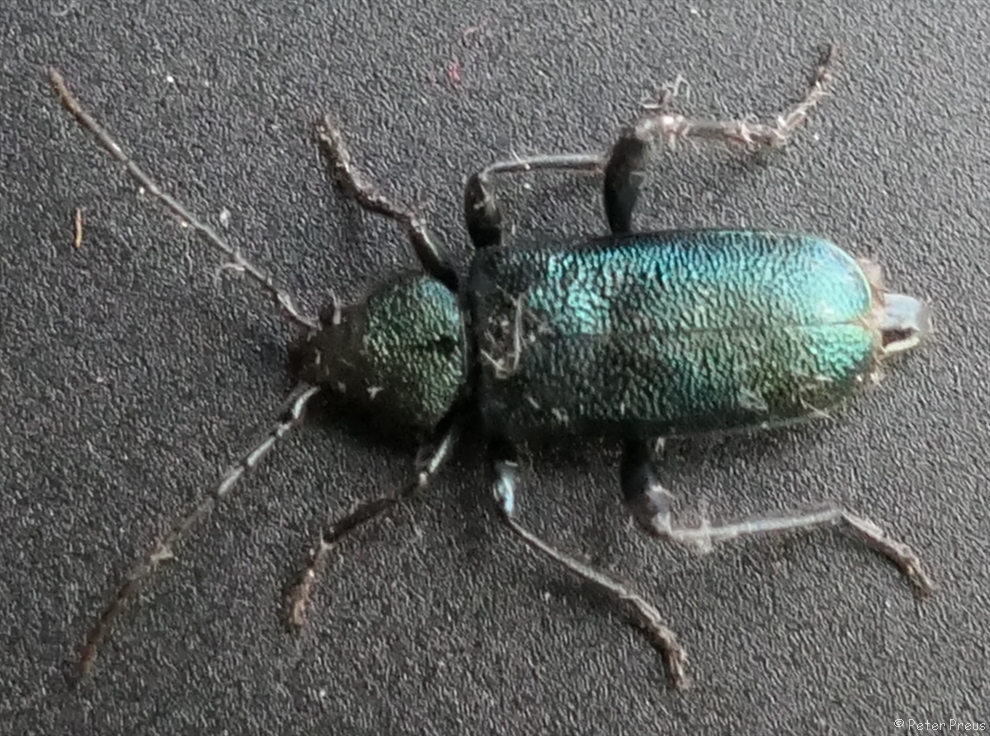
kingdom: Animalia
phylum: Arthropoda
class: Insecta
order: Coleoptera
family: Cerambycidae
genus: Callidium
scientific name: Callidium violaceum
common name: Violet tanbark beetle
